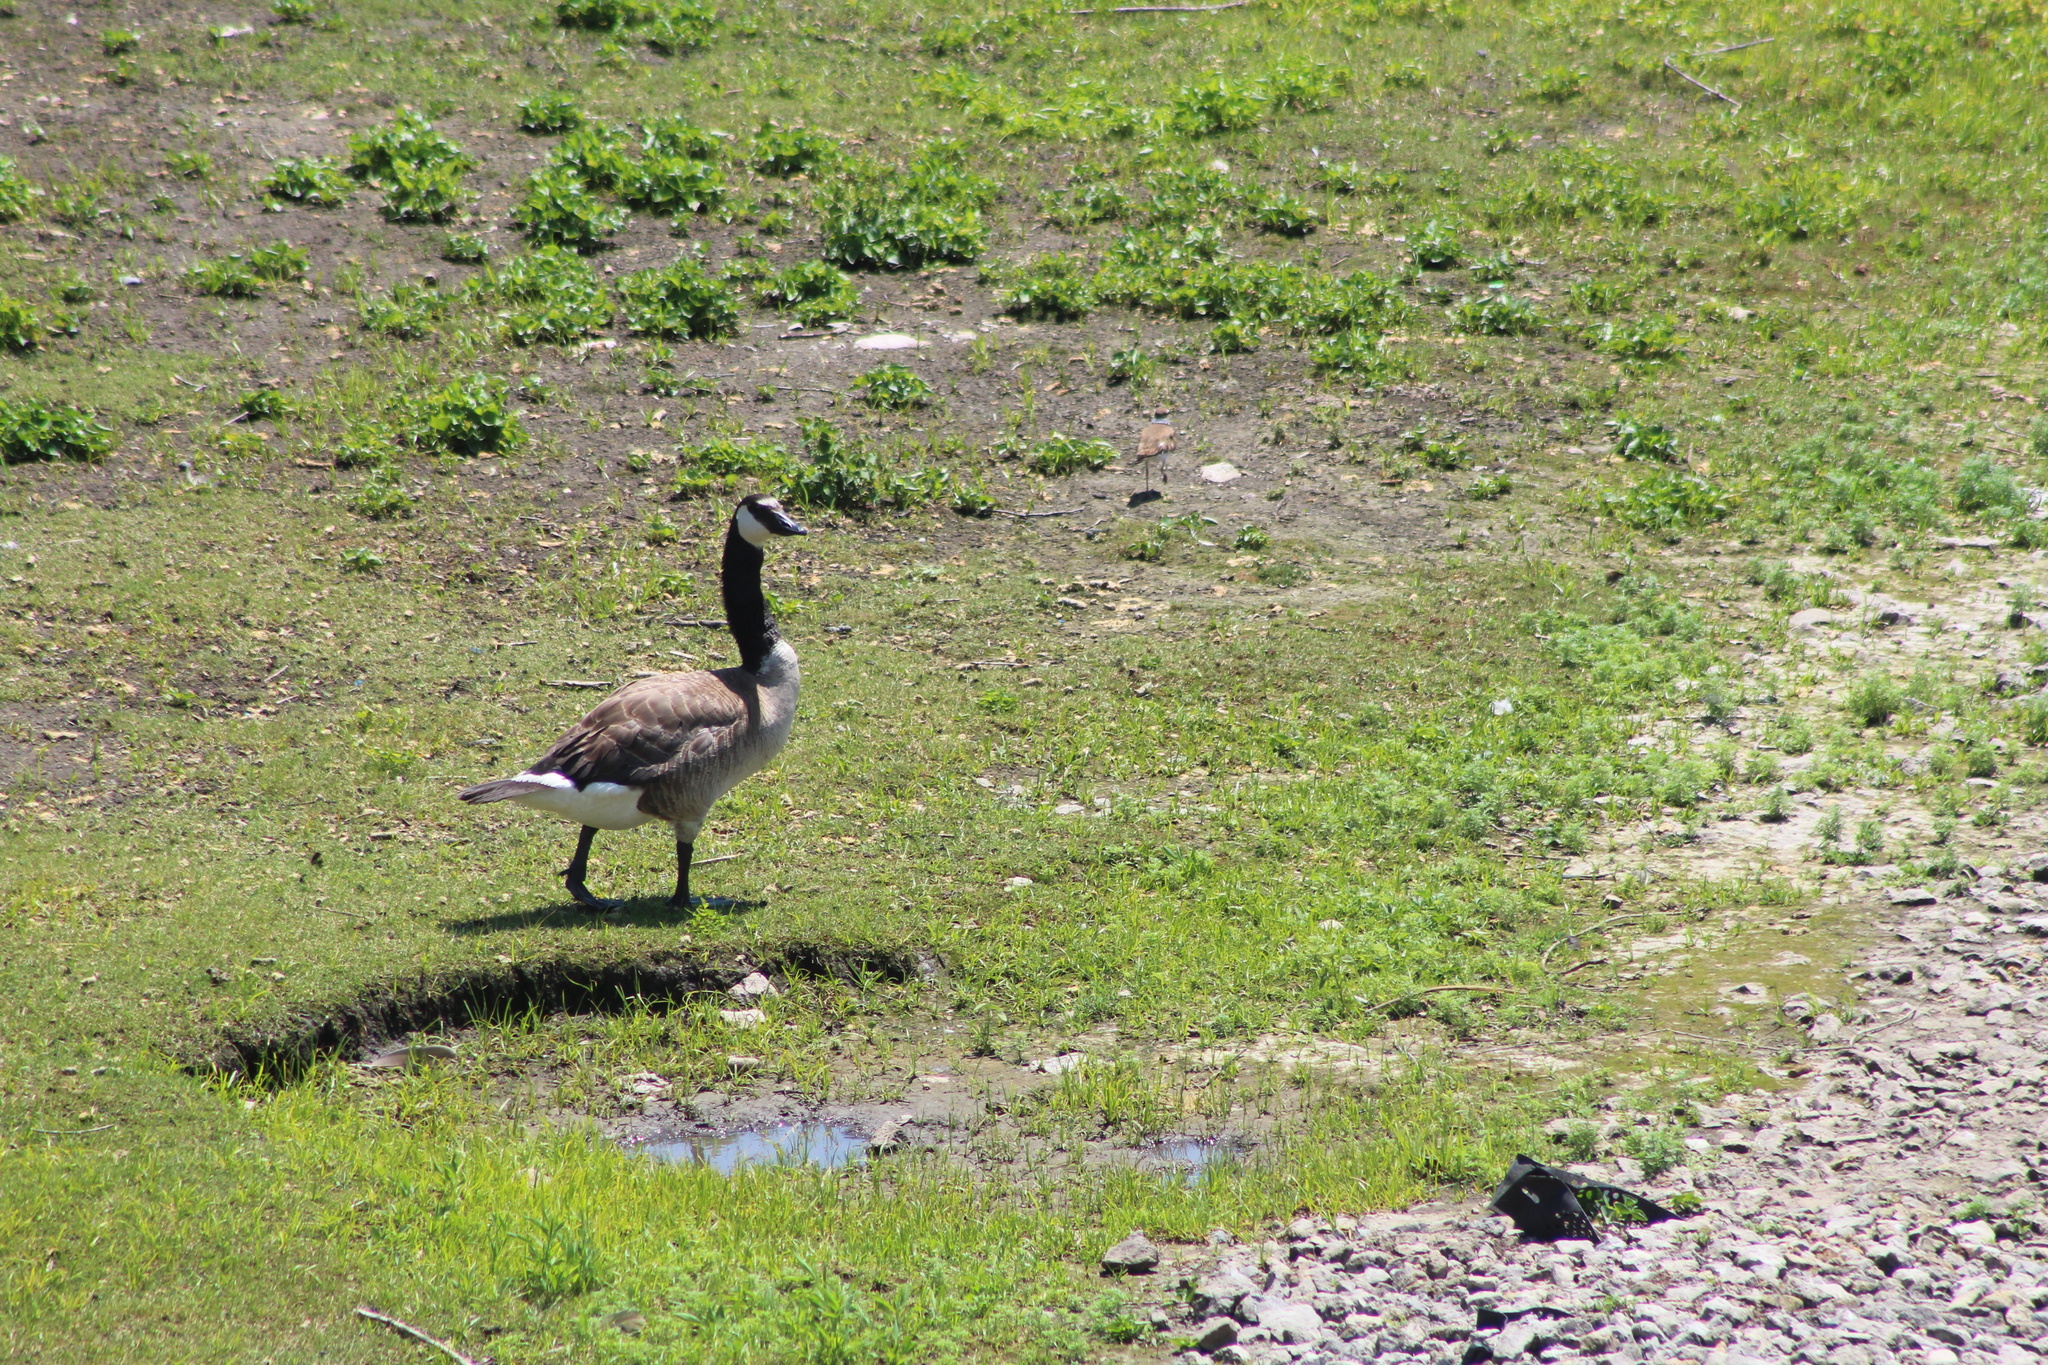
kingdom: Animalia
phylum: Chordata
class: Aves
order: Anseriformes
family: Anatidae
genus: Branta
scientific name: Branta canadensis
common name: Canada goose
